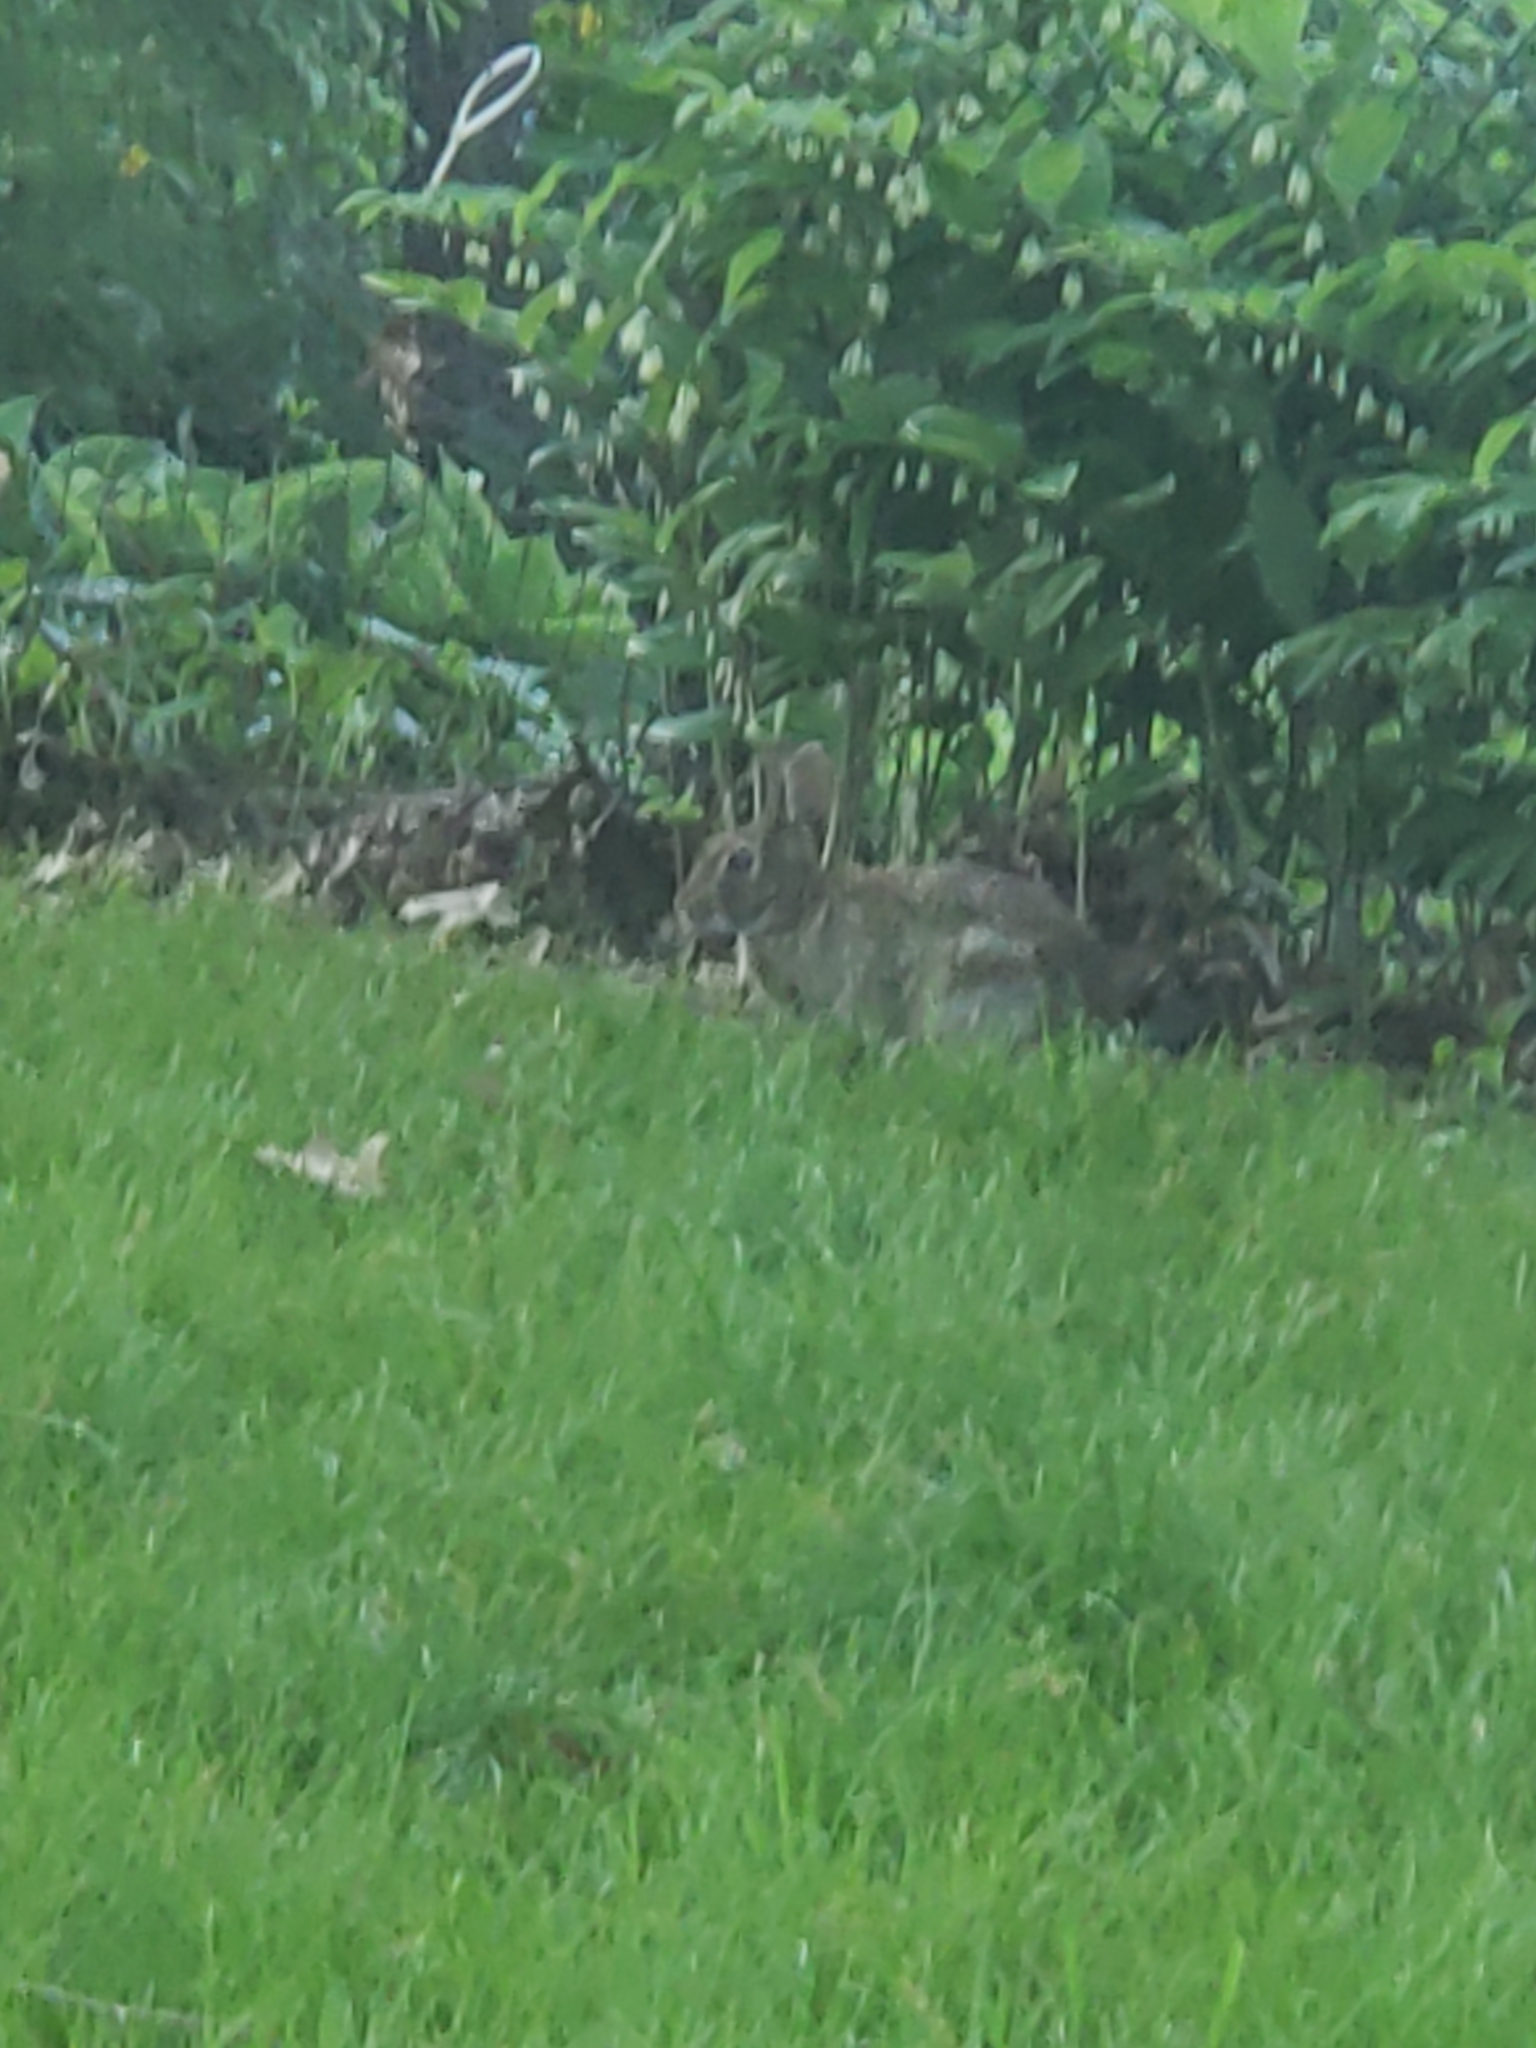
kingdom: Animalia
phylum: Chordata
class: Mammalia
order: Lagomorpha
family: Leporidae
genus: Sylvilagus
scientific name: Sylvilagus floridanus
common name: Eastern cottontail
